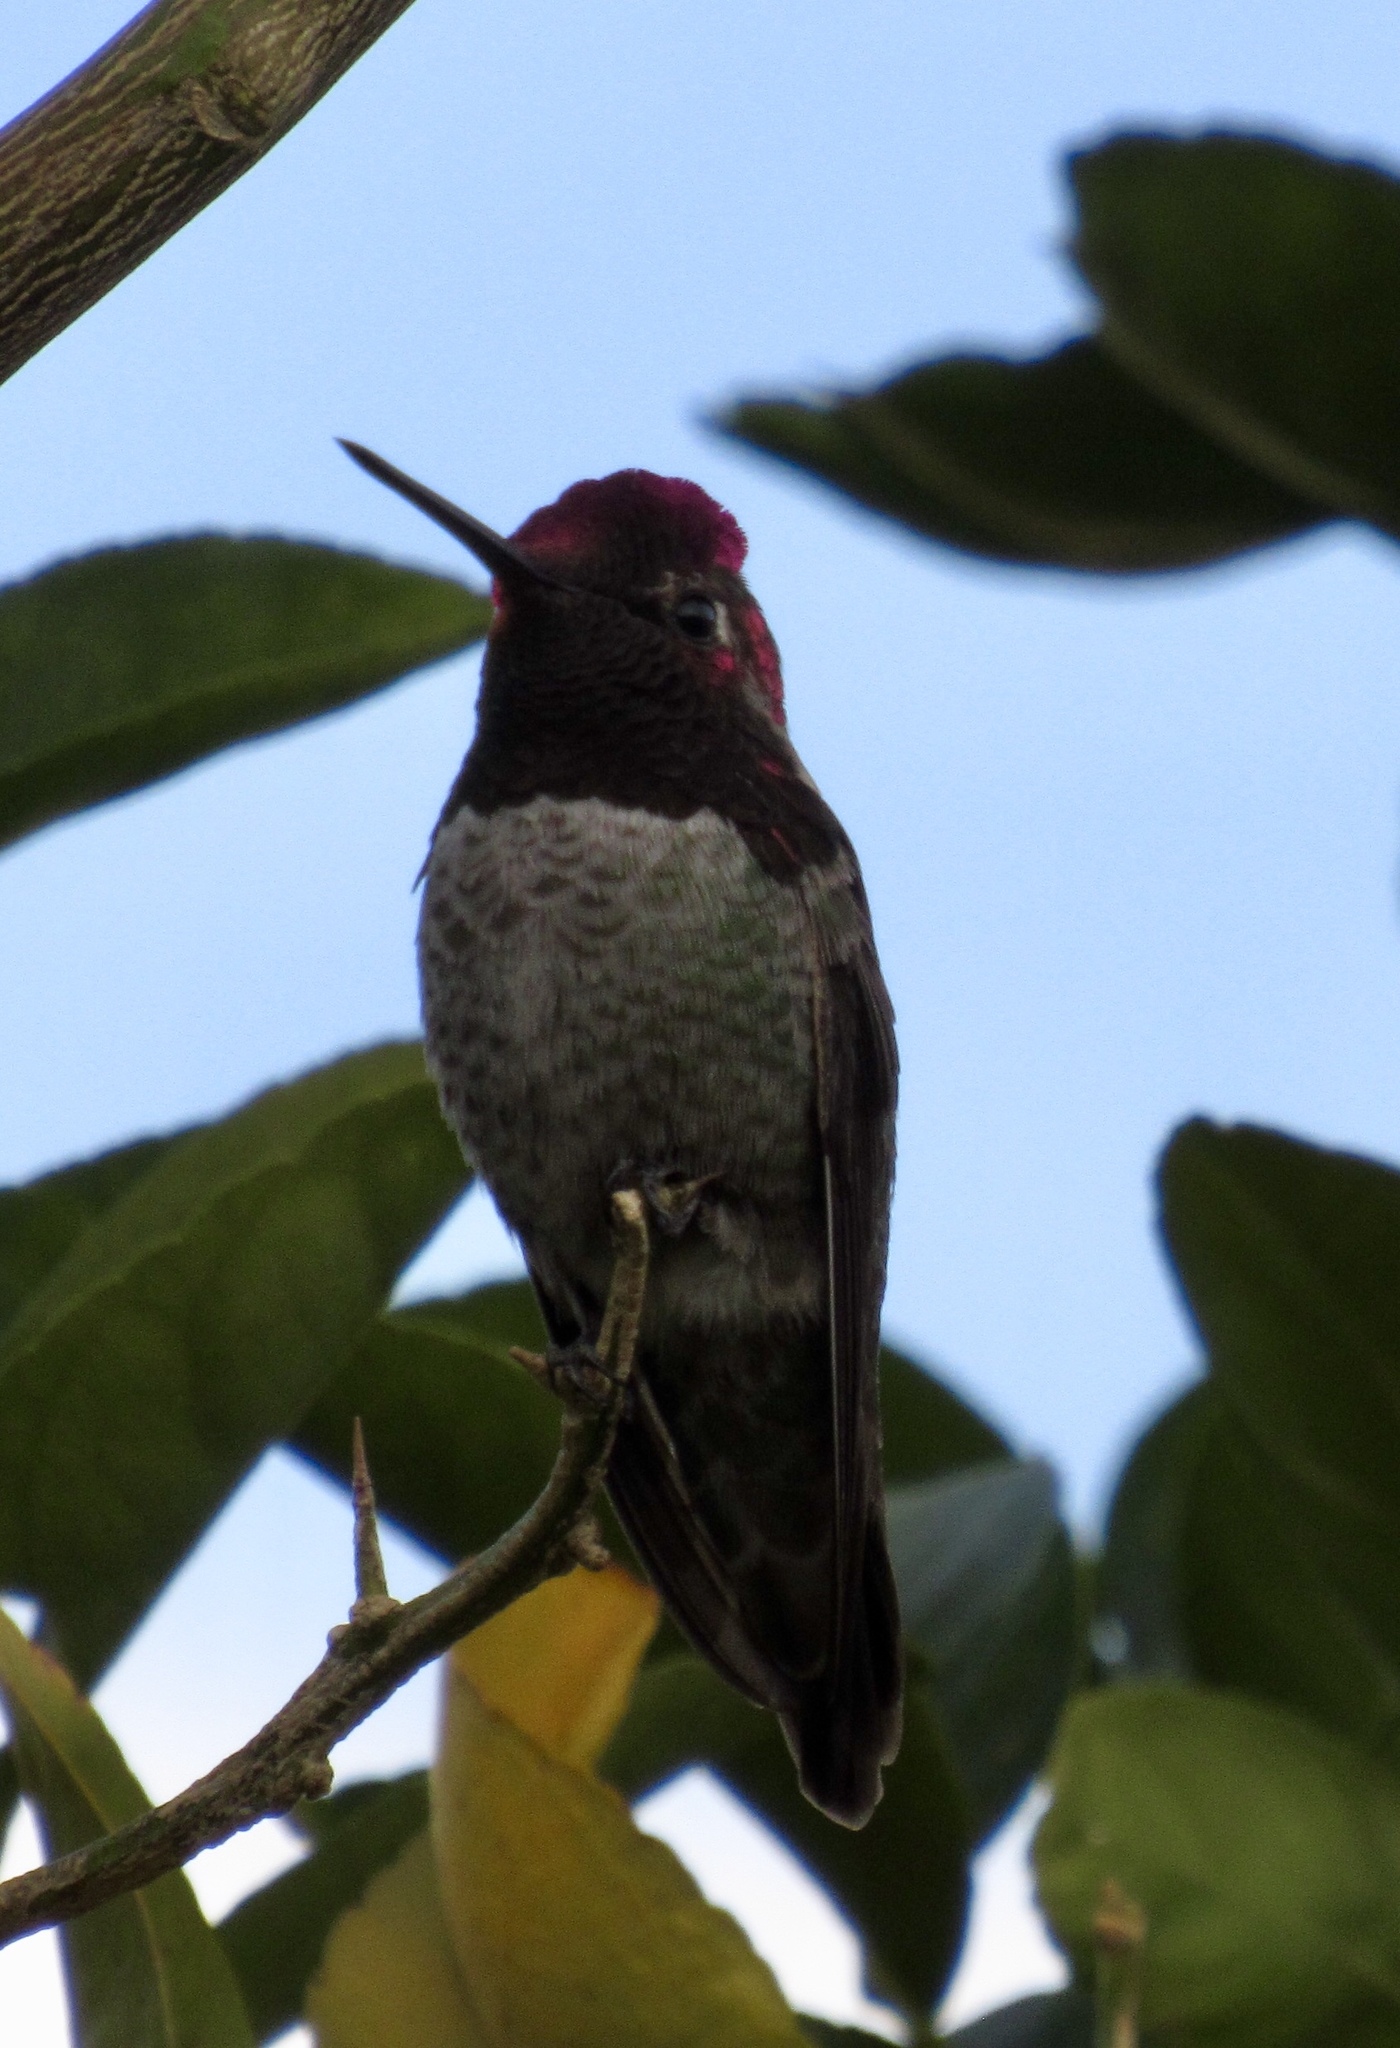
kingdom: Animalia
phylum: Chordata
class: Aves
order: Apodiformes
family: Trochilidae
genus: Calypte
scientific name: Calypte anna
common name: Anna's hummingbird
